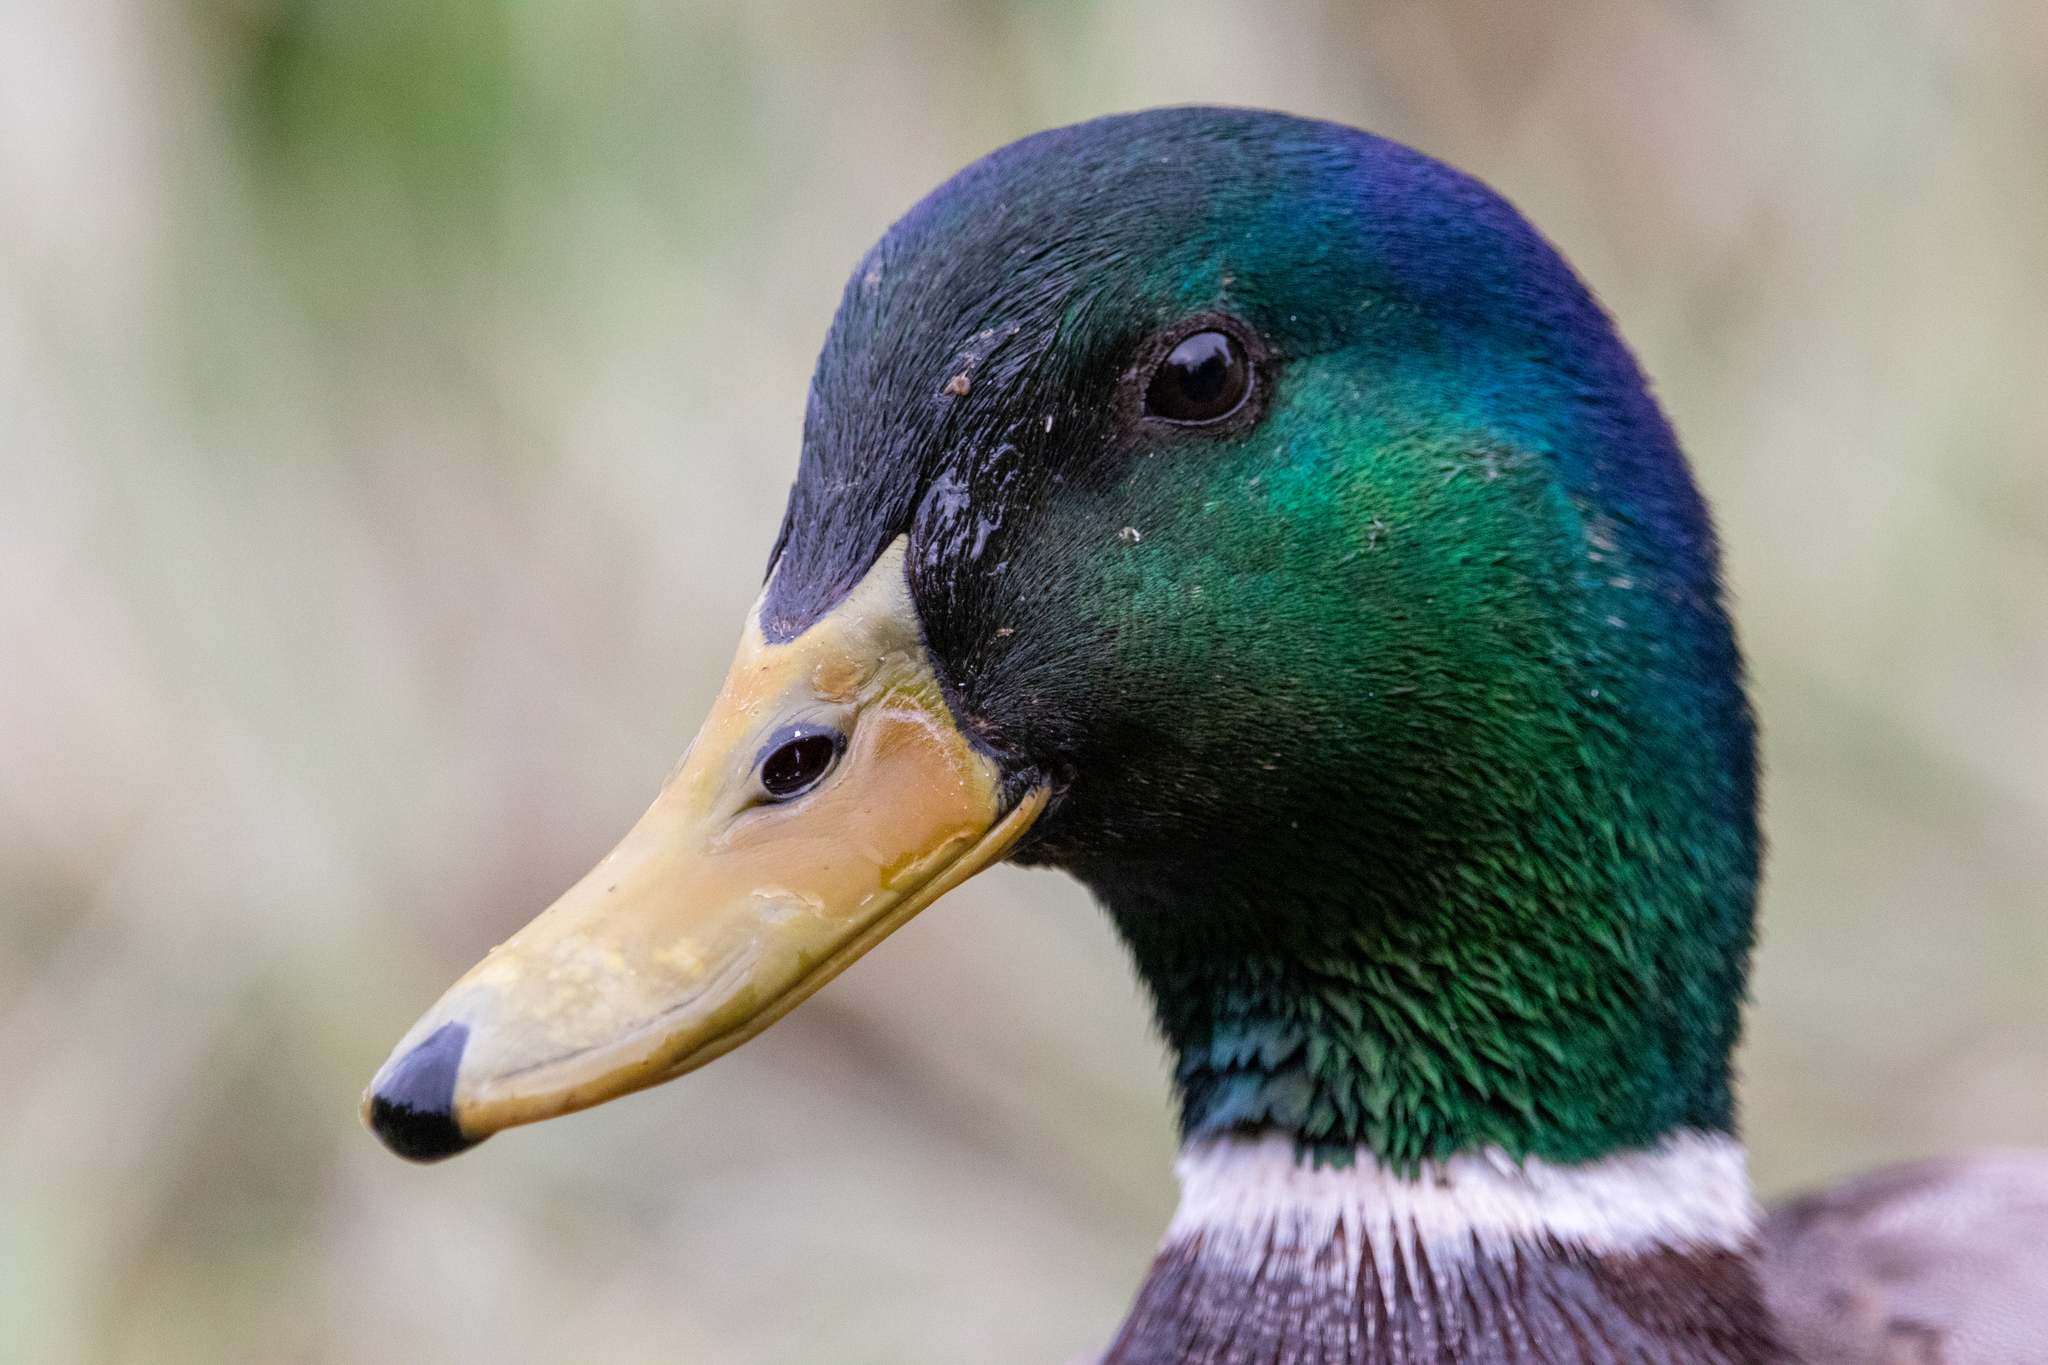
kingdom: Animalia
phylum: Chordata
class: Aves
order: Anseriformes
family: Anatidae
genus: Anas
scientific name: Anas platyrhynchos
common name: Mallard
